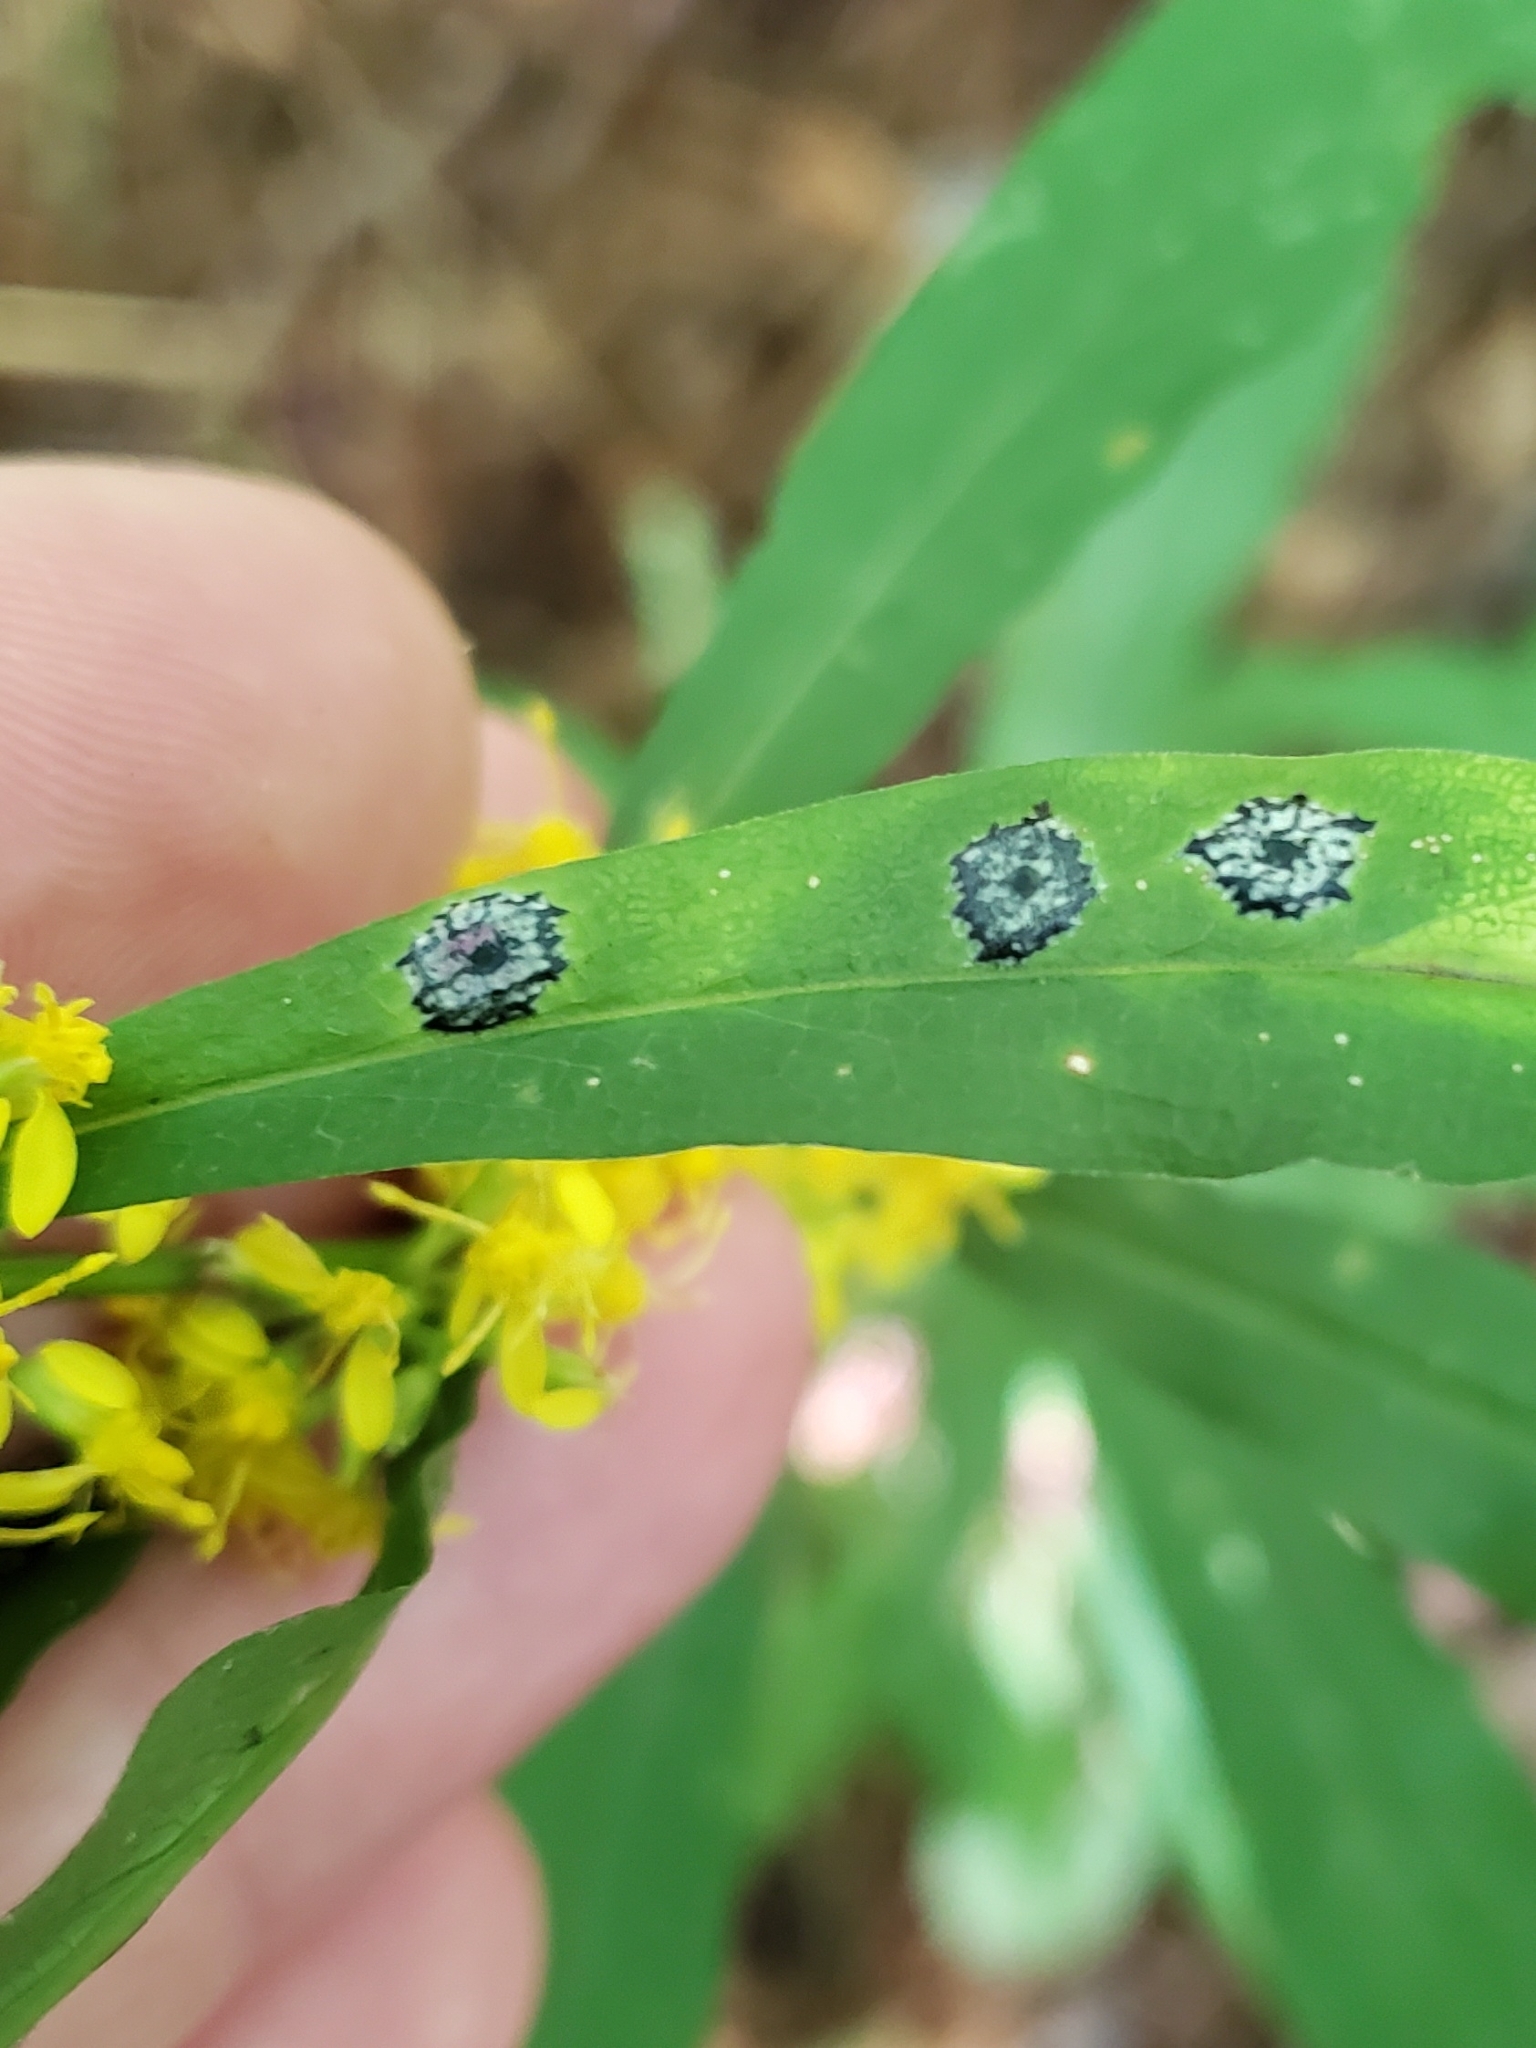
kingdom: Animalia
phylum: Arthropoda
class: Insecta
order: Diptera
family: Cecidomyiidae
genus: Asteromyia
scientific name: Asteromyia carbonifera
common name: Carbonifera goldenrod gall midge
